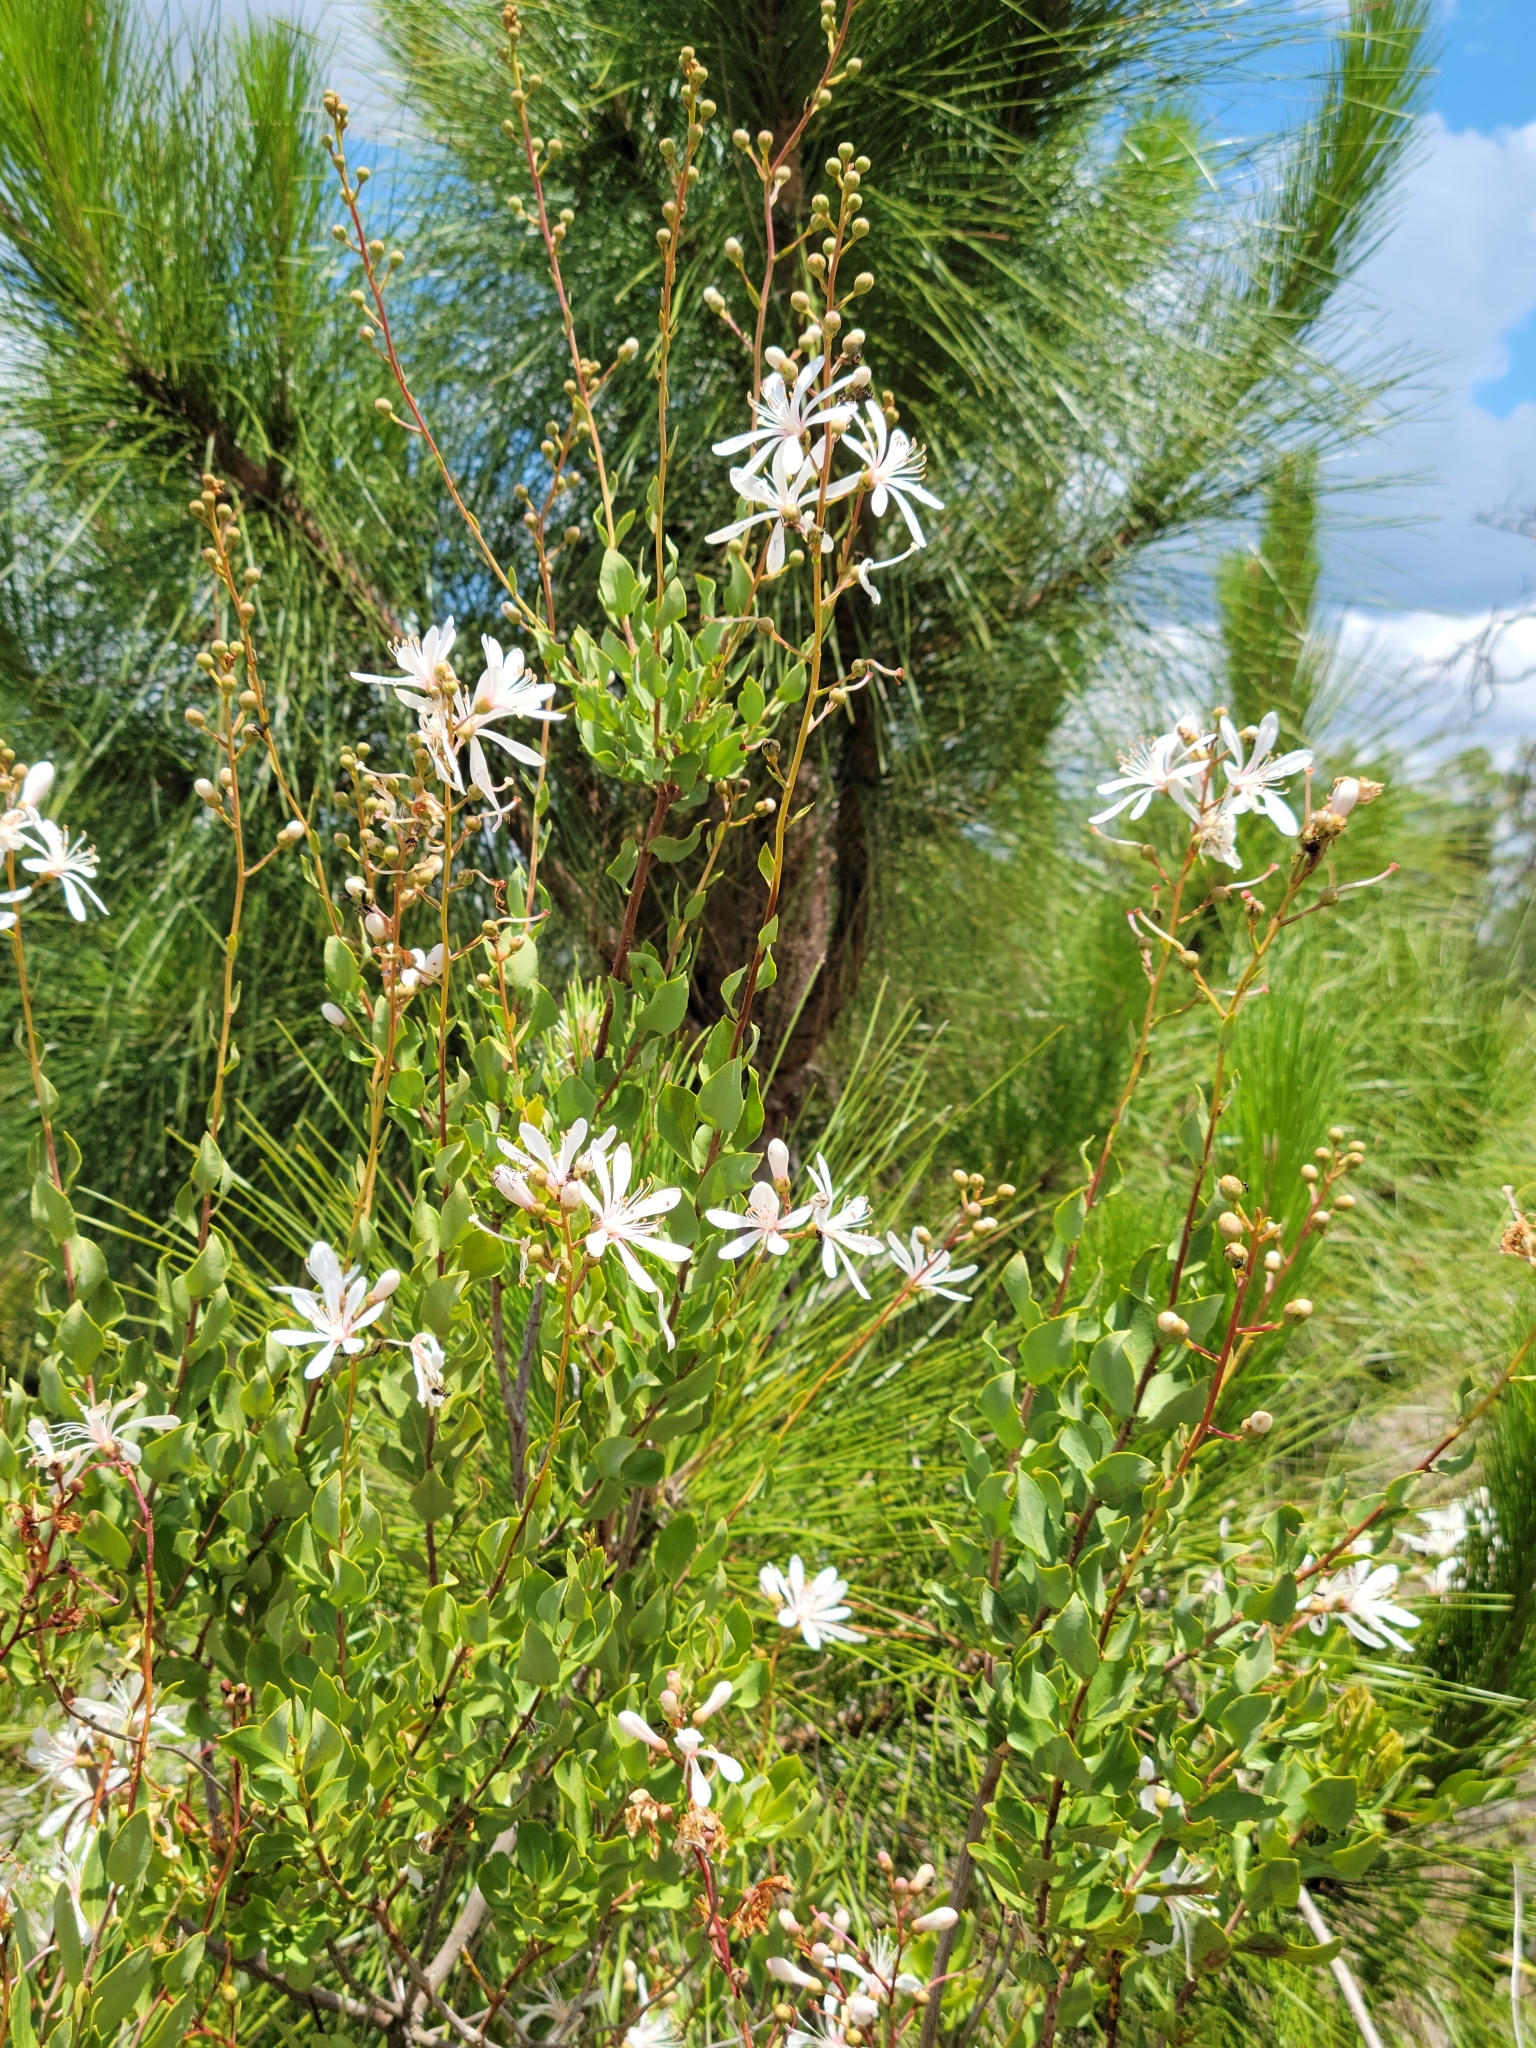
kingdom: Plantae
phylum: Tracheophyta
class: Magnoliopsida
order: Ericales
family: Ericaceae
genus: Bejaria
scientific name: Bejaria racemosa
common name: Tarflower
